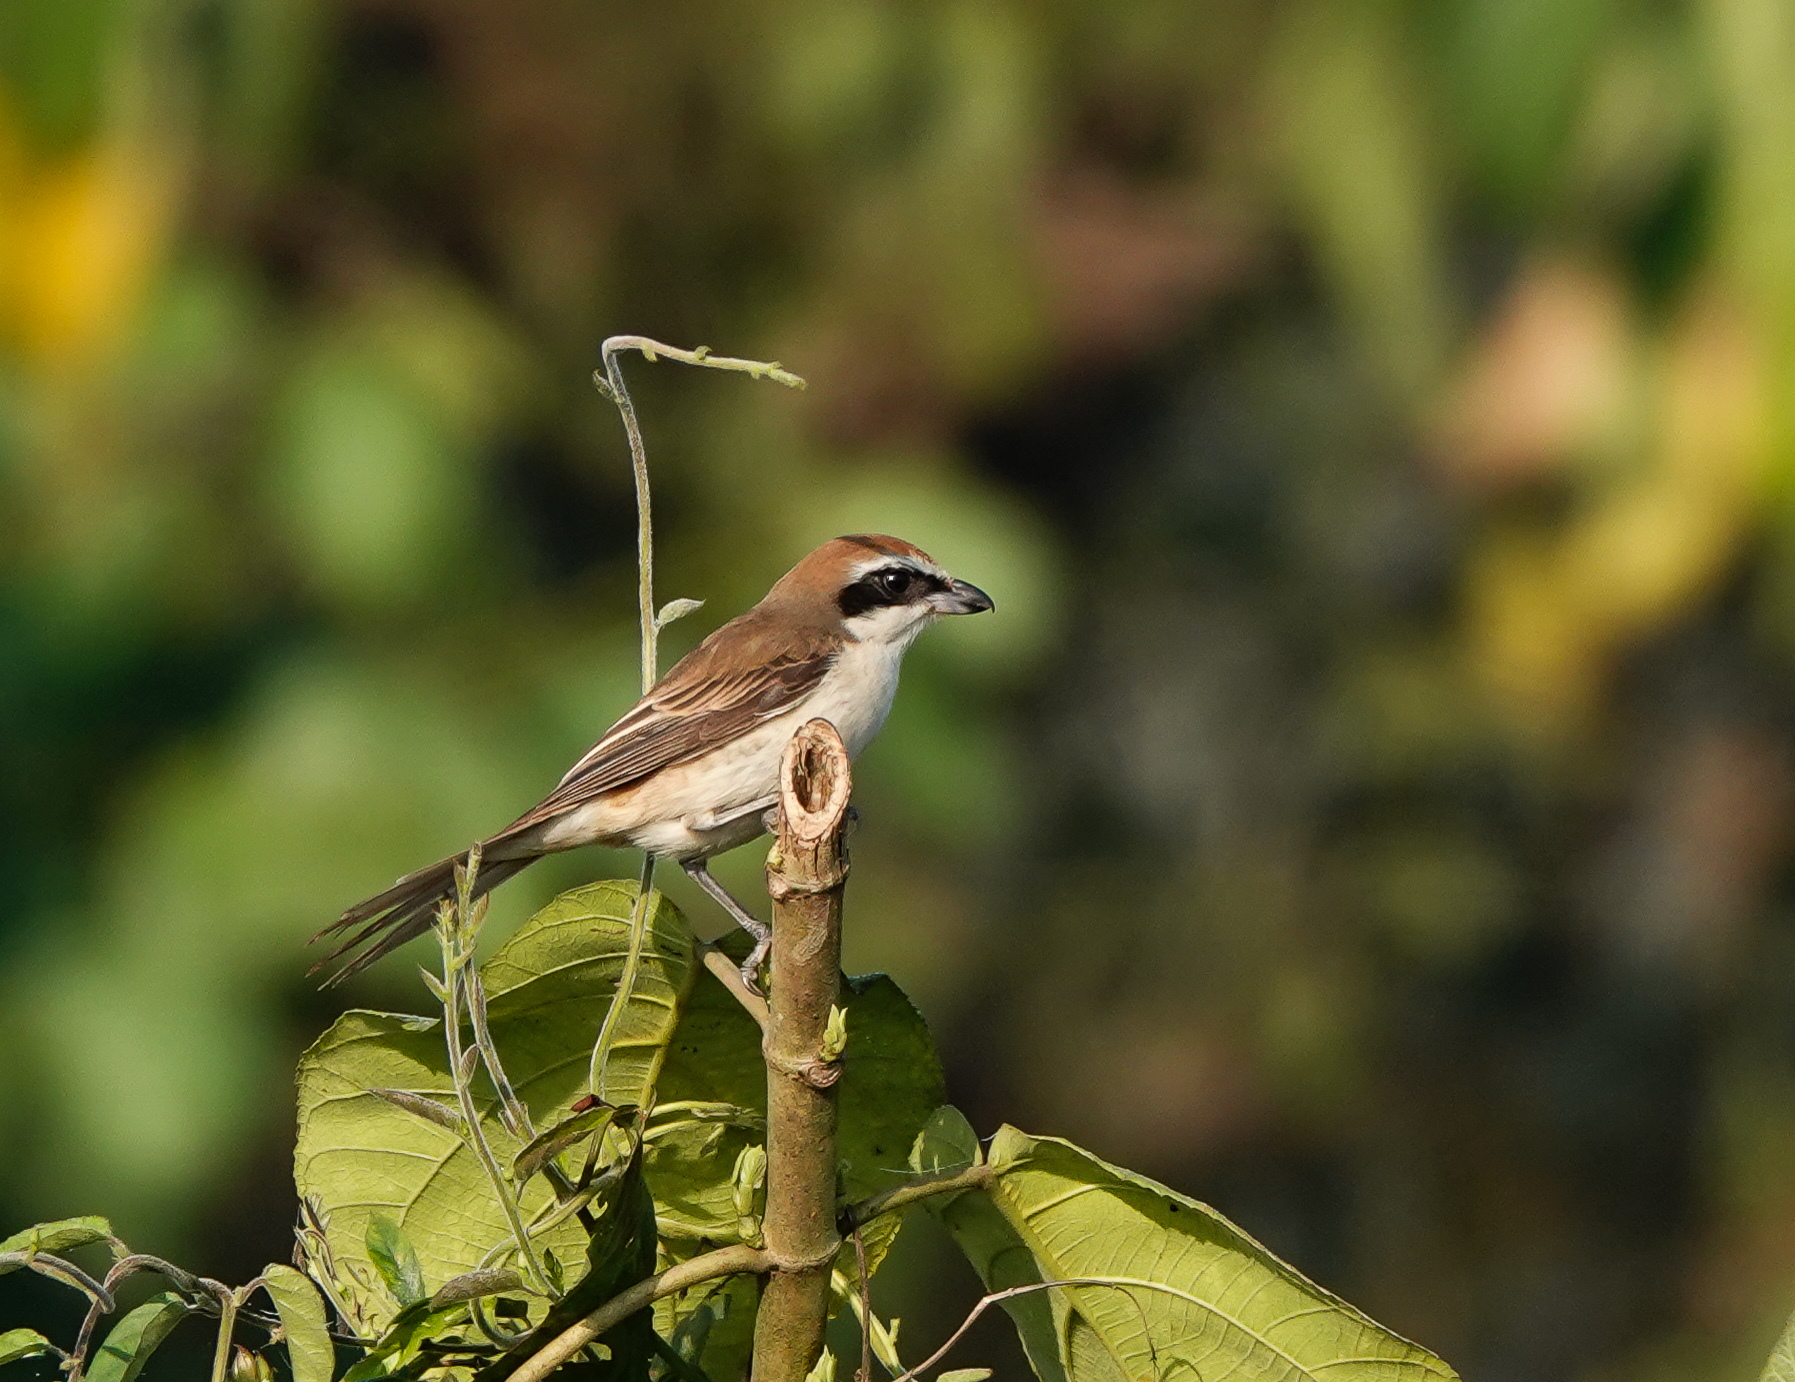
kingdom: Animalia
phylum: Chordata
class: Aves
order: Passeriformes
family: Laniidae
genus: Lanius
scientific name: Lanius cristatus
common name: Brown shrike
